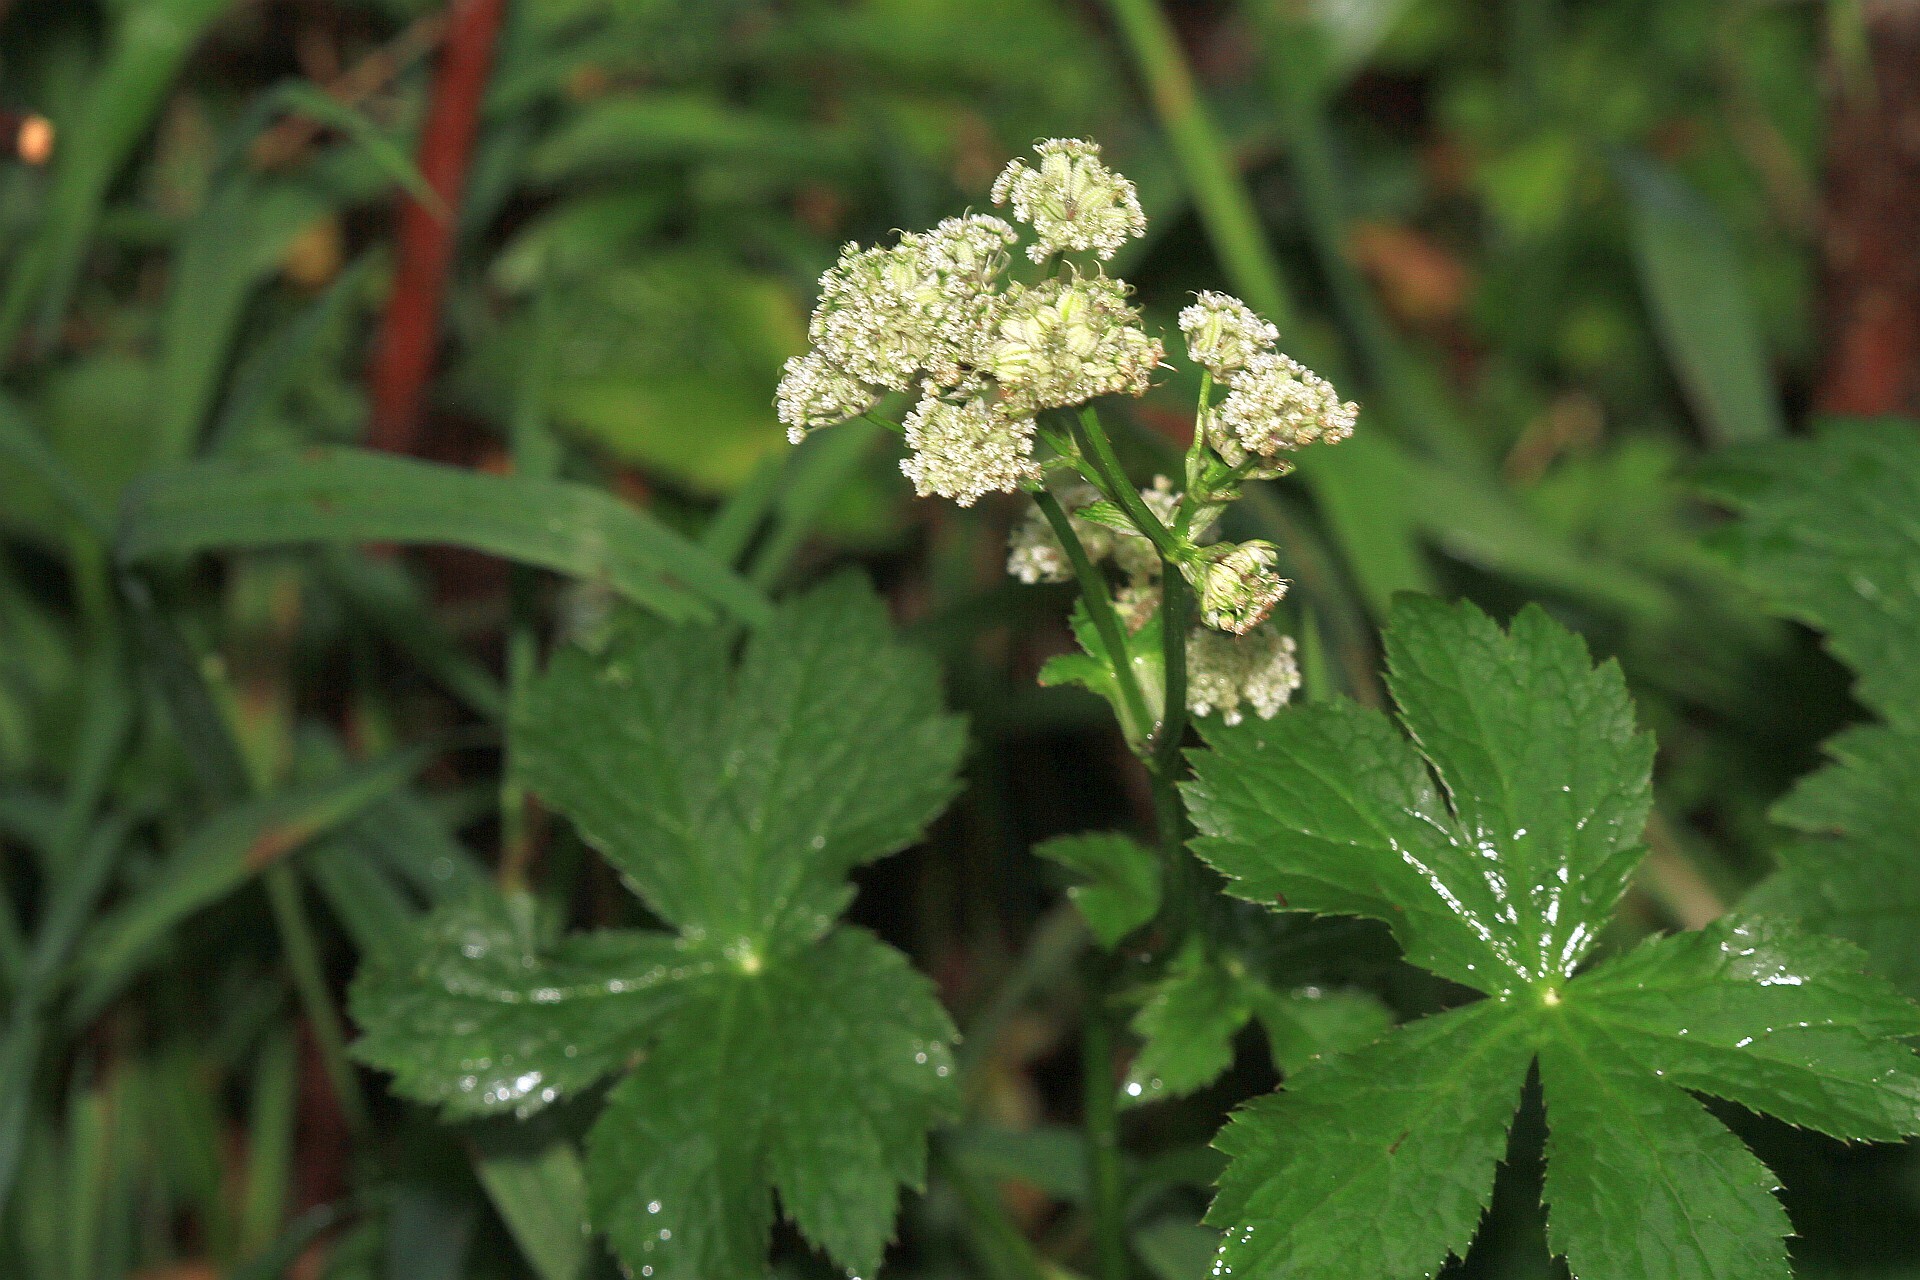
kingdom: Plantae
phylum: Tracheophyta
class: Magnoliopsida
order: Apiales
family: Apiaceae
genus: Astrantia
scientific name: Astrantia major
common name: Greater masterwort
